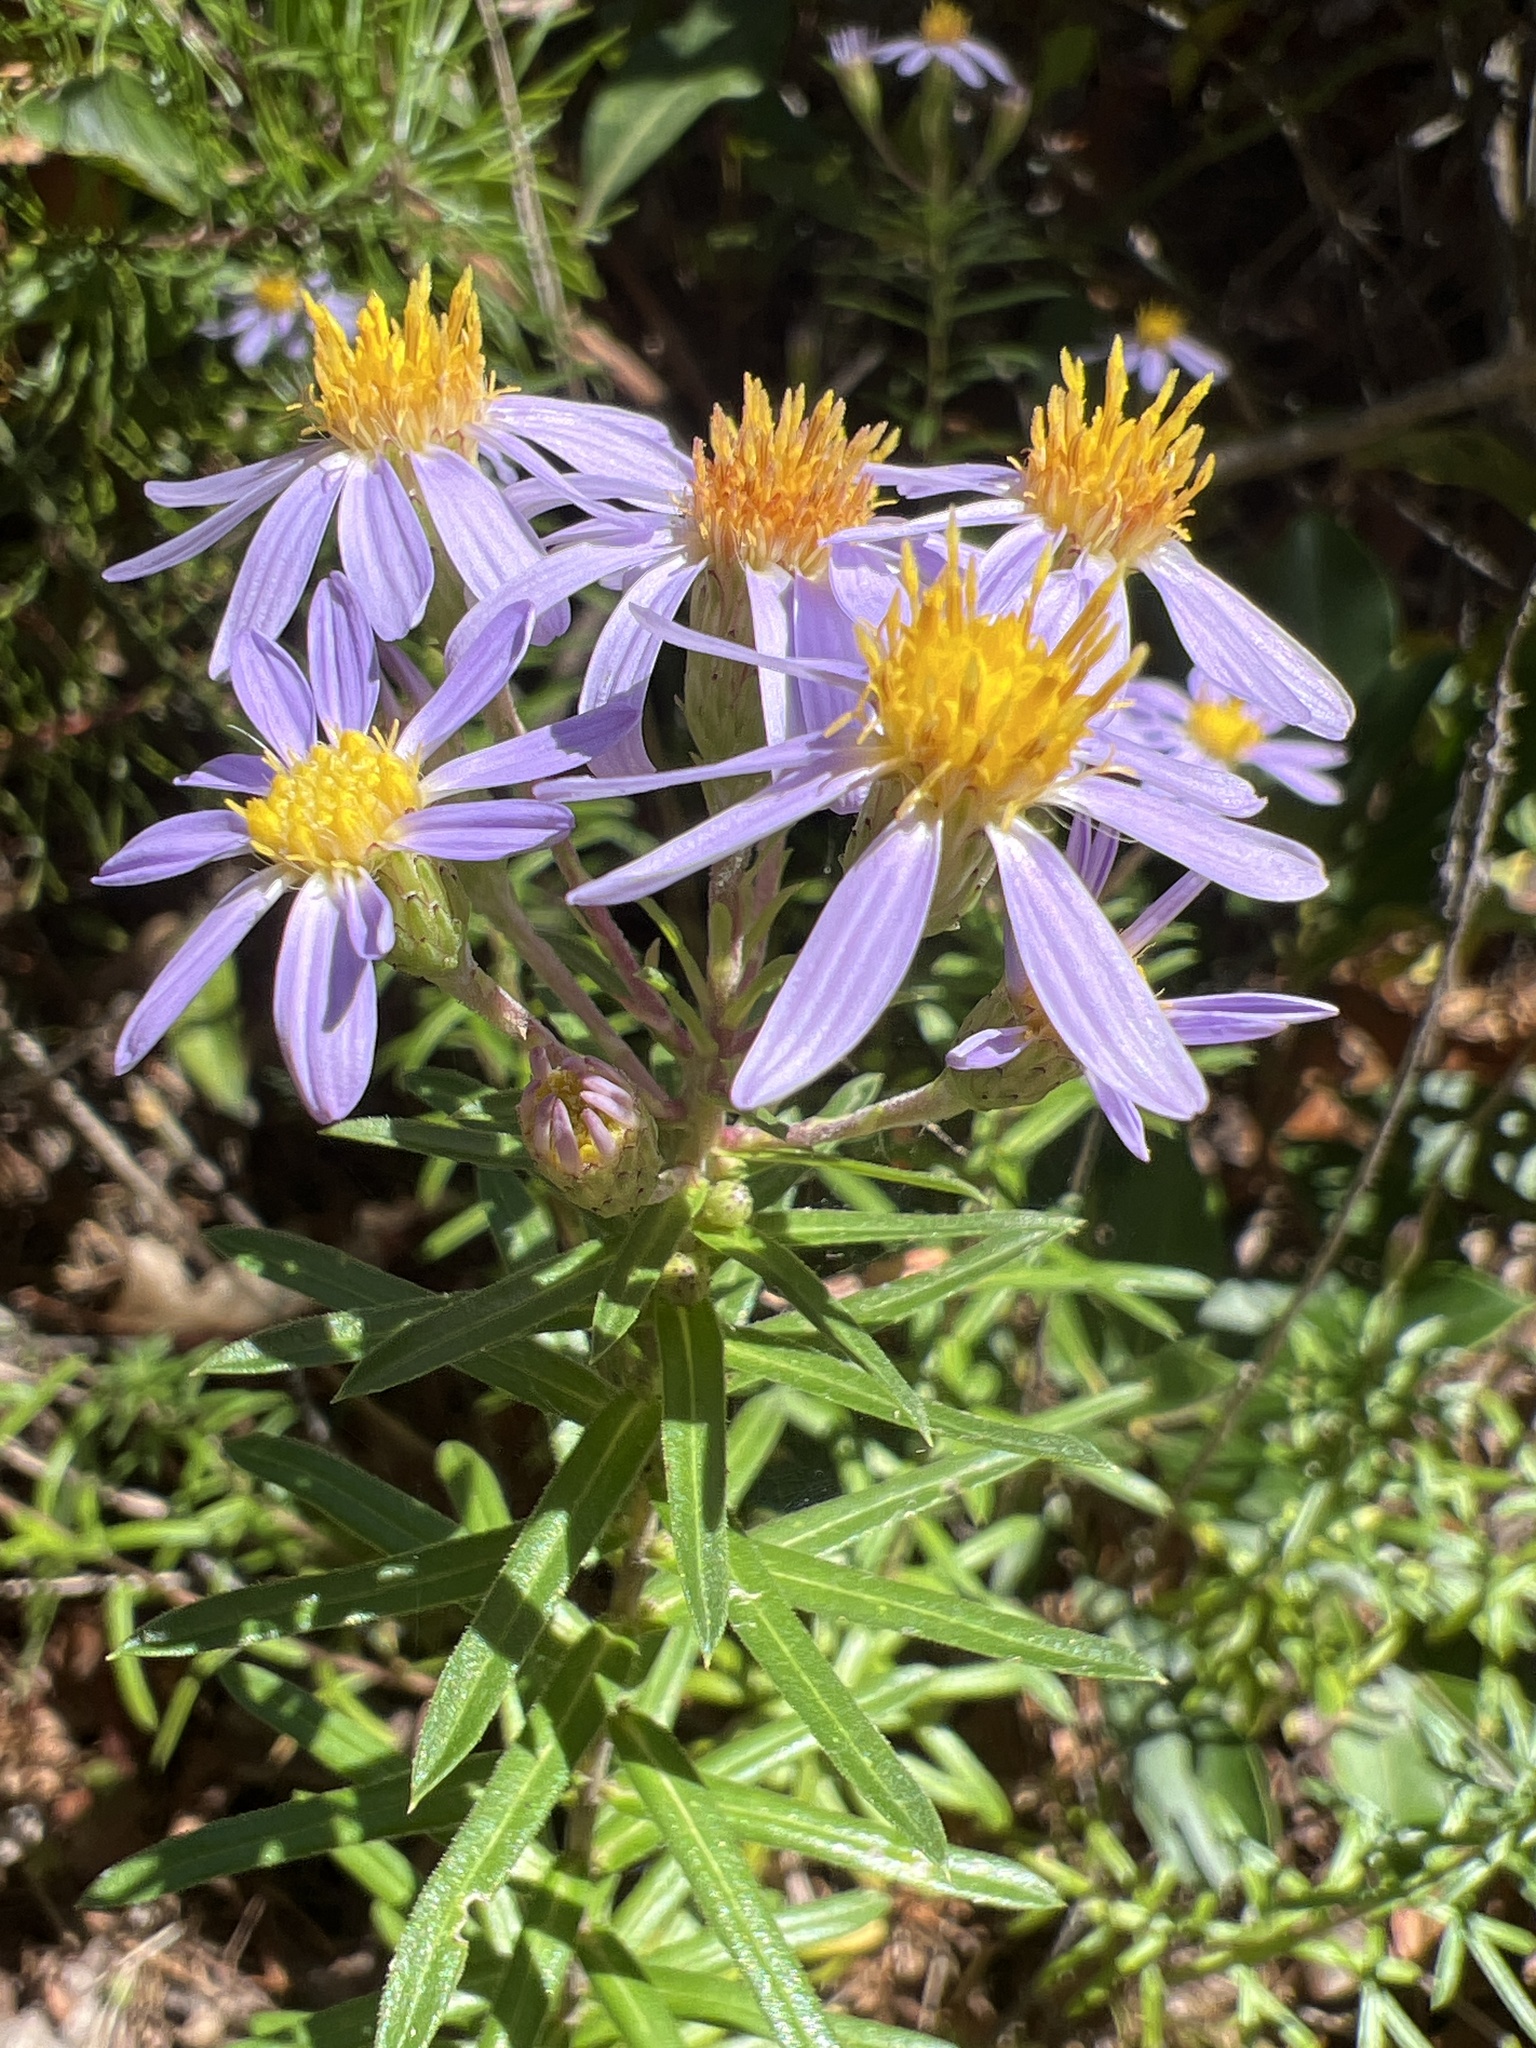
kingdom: Plantae
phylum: Tracheophyta
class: Magnoliopsida
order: Asterales
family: Asteraceae
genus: Ionactis
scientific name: Ionactis linariifolia
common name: Flax-leaf aster
